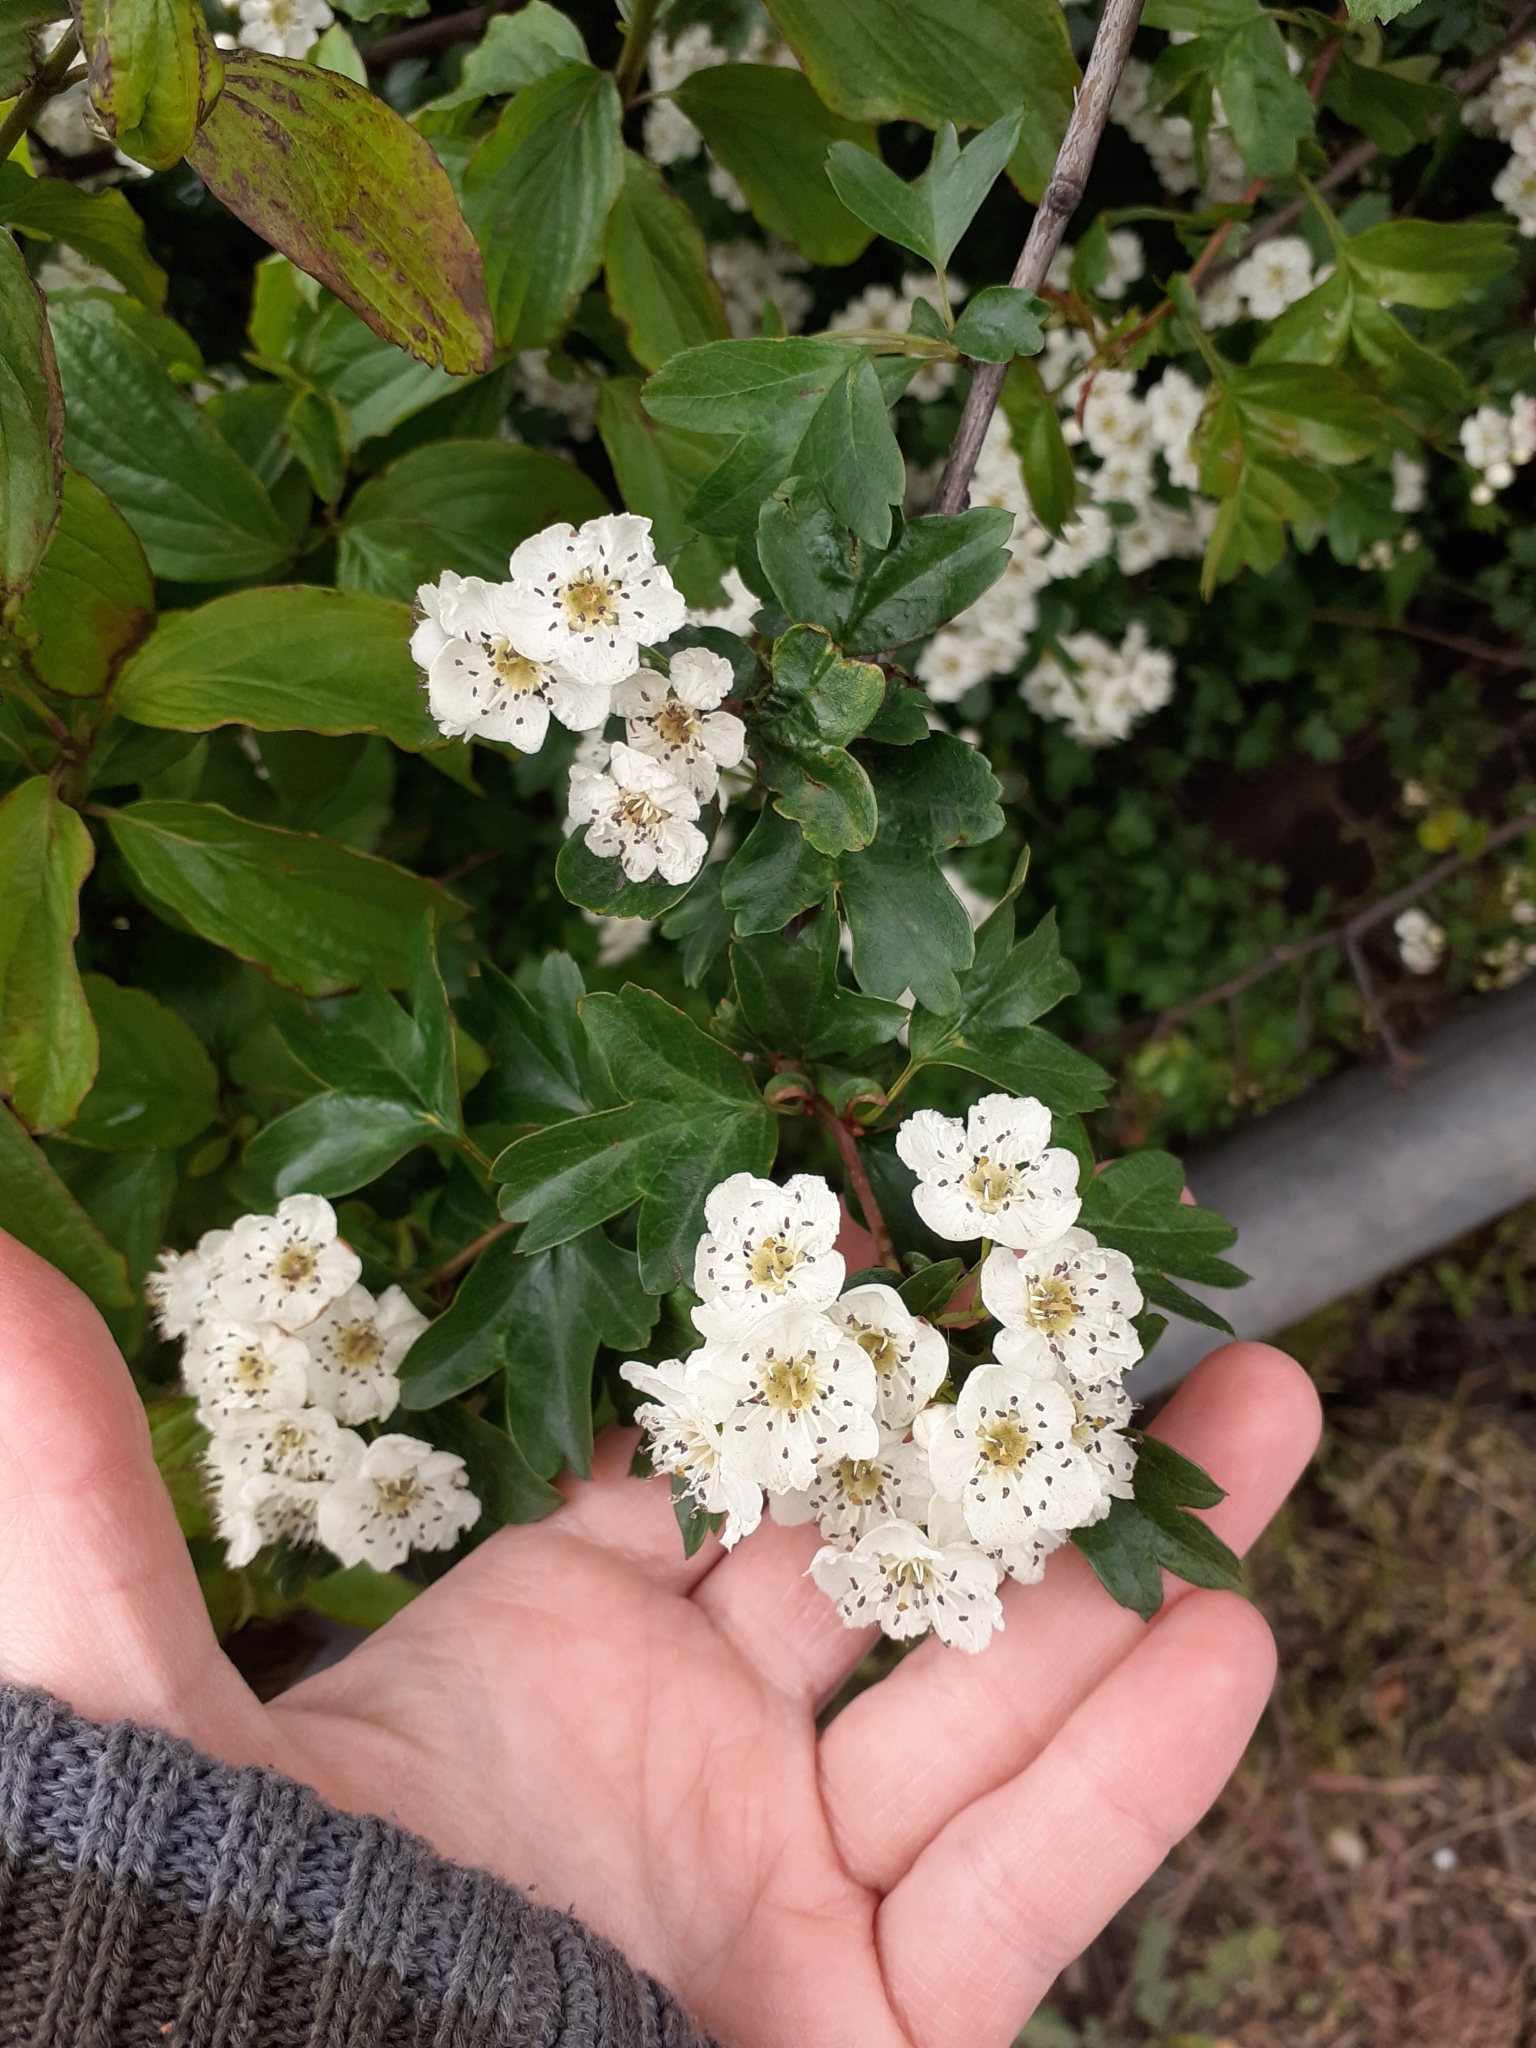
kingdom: Plantae
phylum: Tracheophyta
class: Magnoliopsida
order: Rosales
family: Rosaceae
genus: Crataegus
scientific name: Crataegus monogyna
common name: Hawthorn
